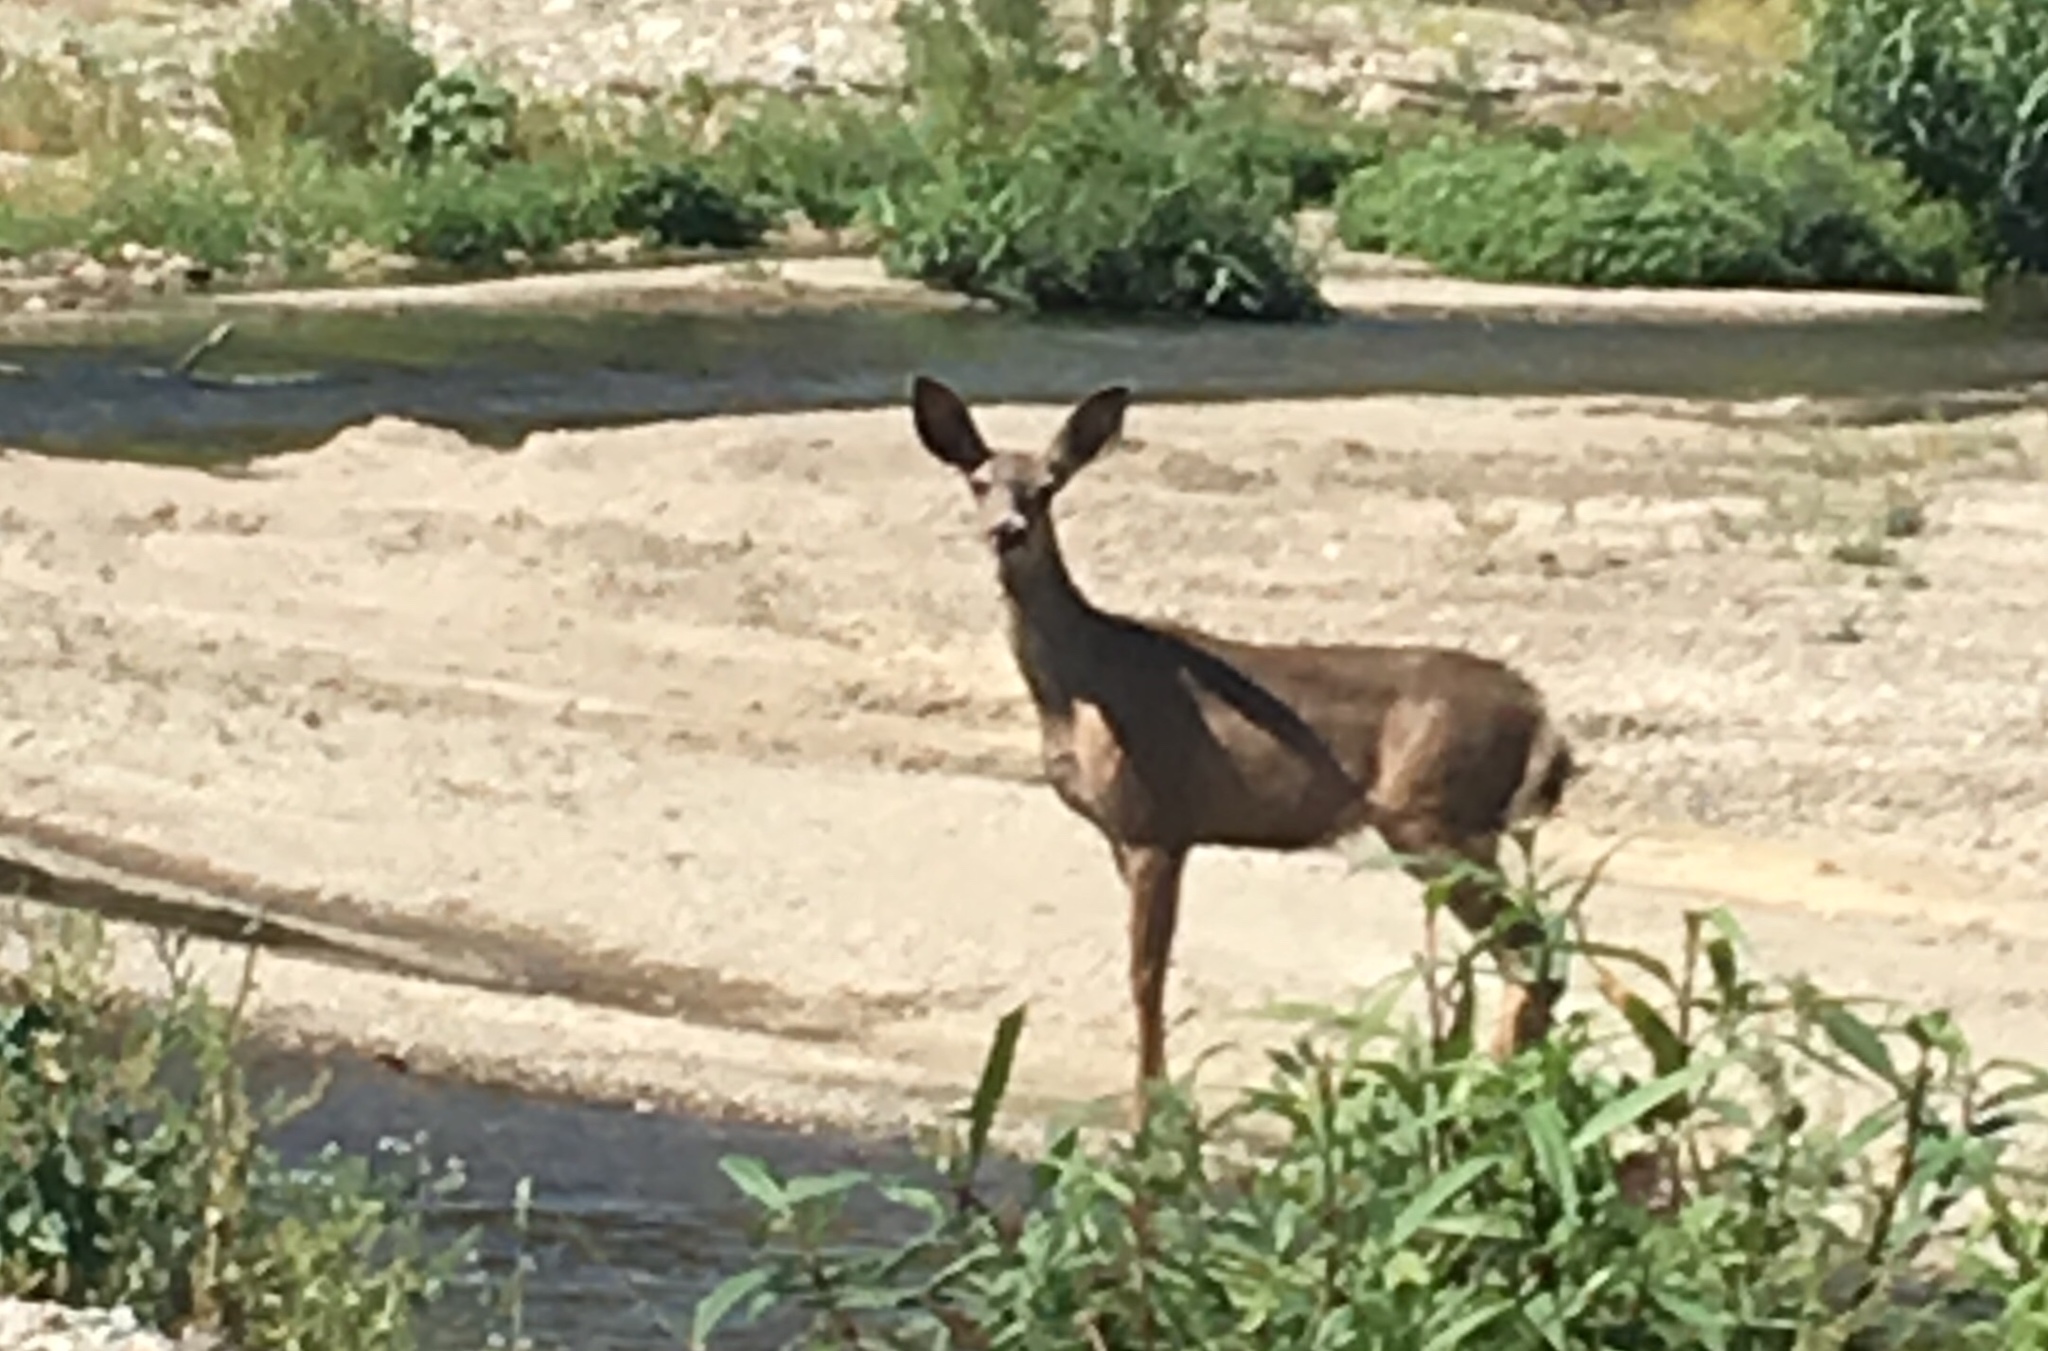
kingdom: Animalia
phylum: Chordata
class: Mammalia
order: Artiodactyla
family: Cervidae
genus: Odocoileus
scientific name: Odocoileus hemionus
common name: Mule deer
